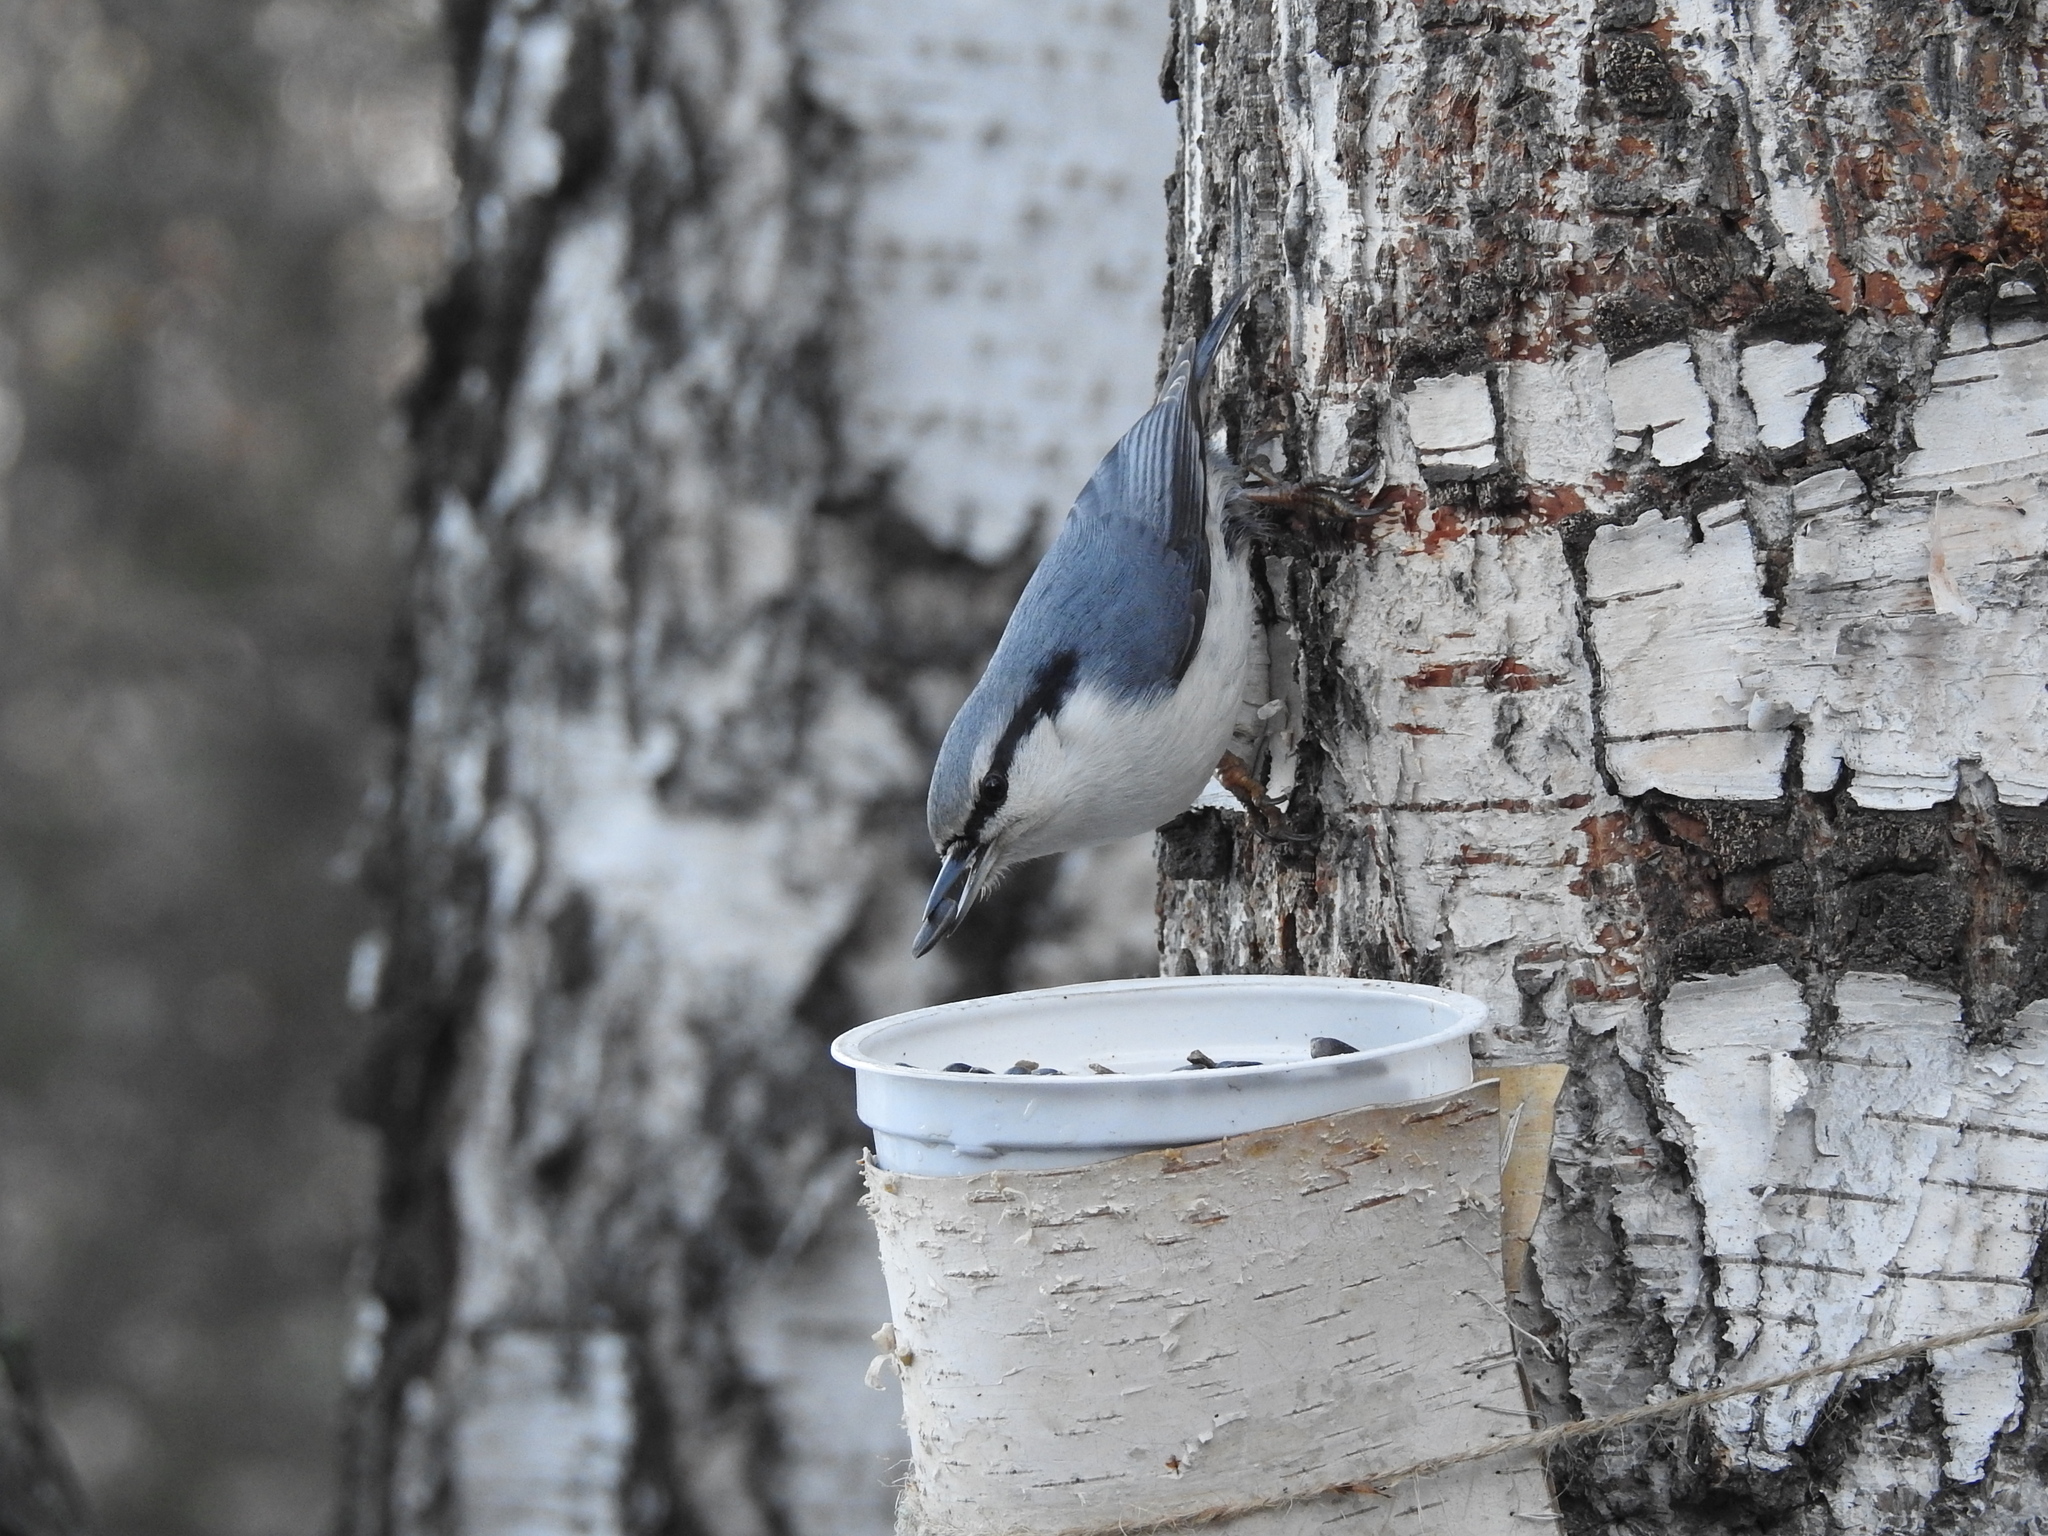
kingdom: Animalia
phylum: Chordata
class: Aves
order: Passeriformes
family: Sittidae
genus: Sitta
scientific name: Sitta europaea
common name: Eurasian nuthatch
